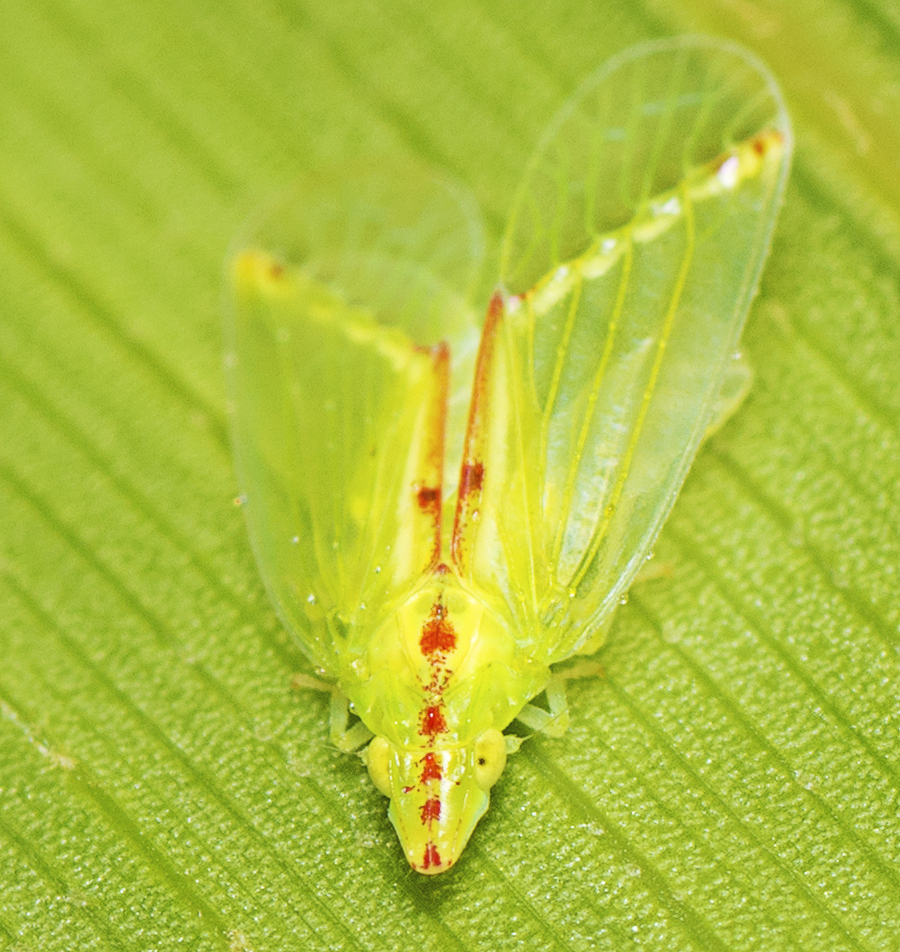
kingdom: Animalia
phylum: Arthropoda
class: Insecta
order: Hemiptera
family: Tropiduchidae
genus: Tambinia
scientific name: Tambinia sexmaculata
